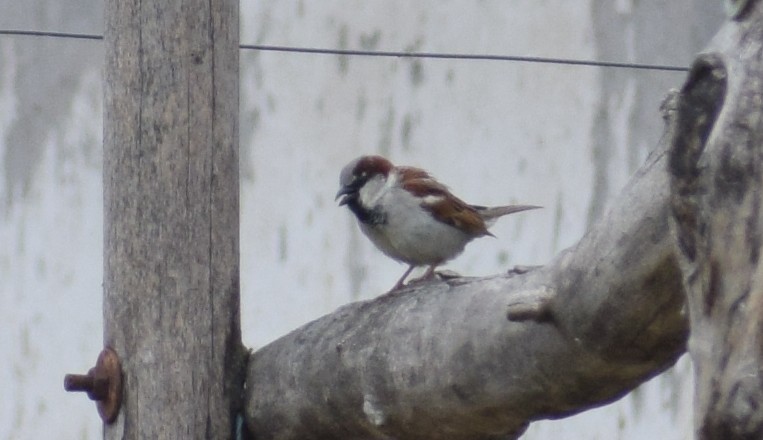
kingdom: Animalia
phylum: Chordata
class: Aves
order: Passeriformes
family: Passeridae
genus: Passer
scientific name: Passer domesticus
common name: House sparrow
